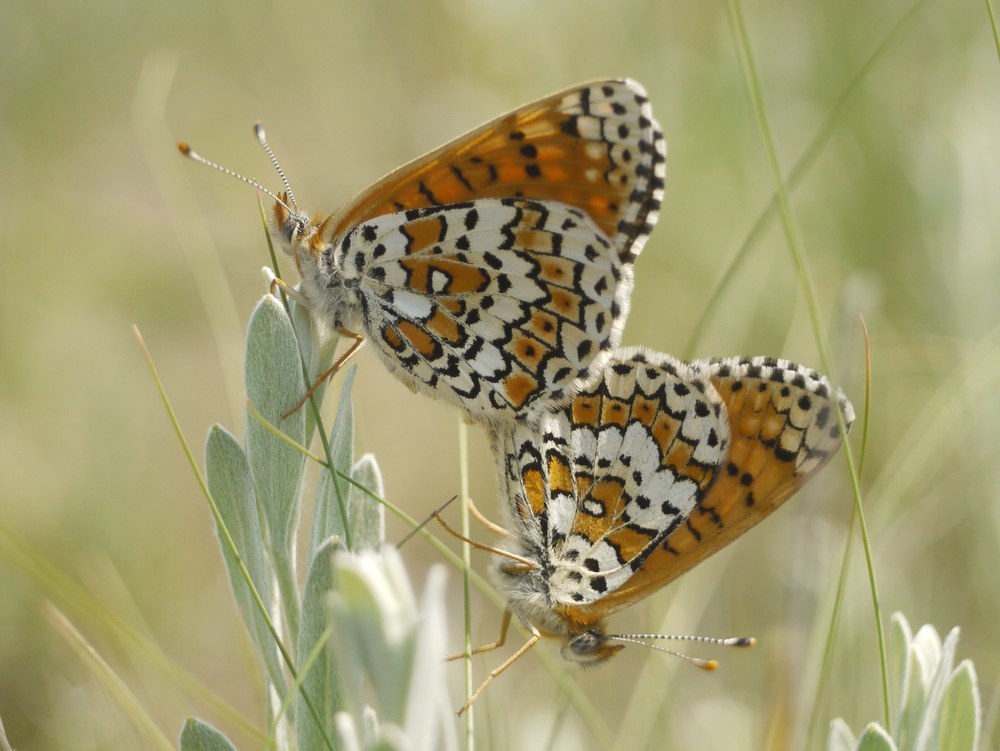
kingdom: Animalia
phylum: Arthropoda
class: Insecta
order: Lepidoptera
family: Nymphalidae
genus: Melitaea
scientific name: Melitaea cinxia
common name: Glanville fritillary
